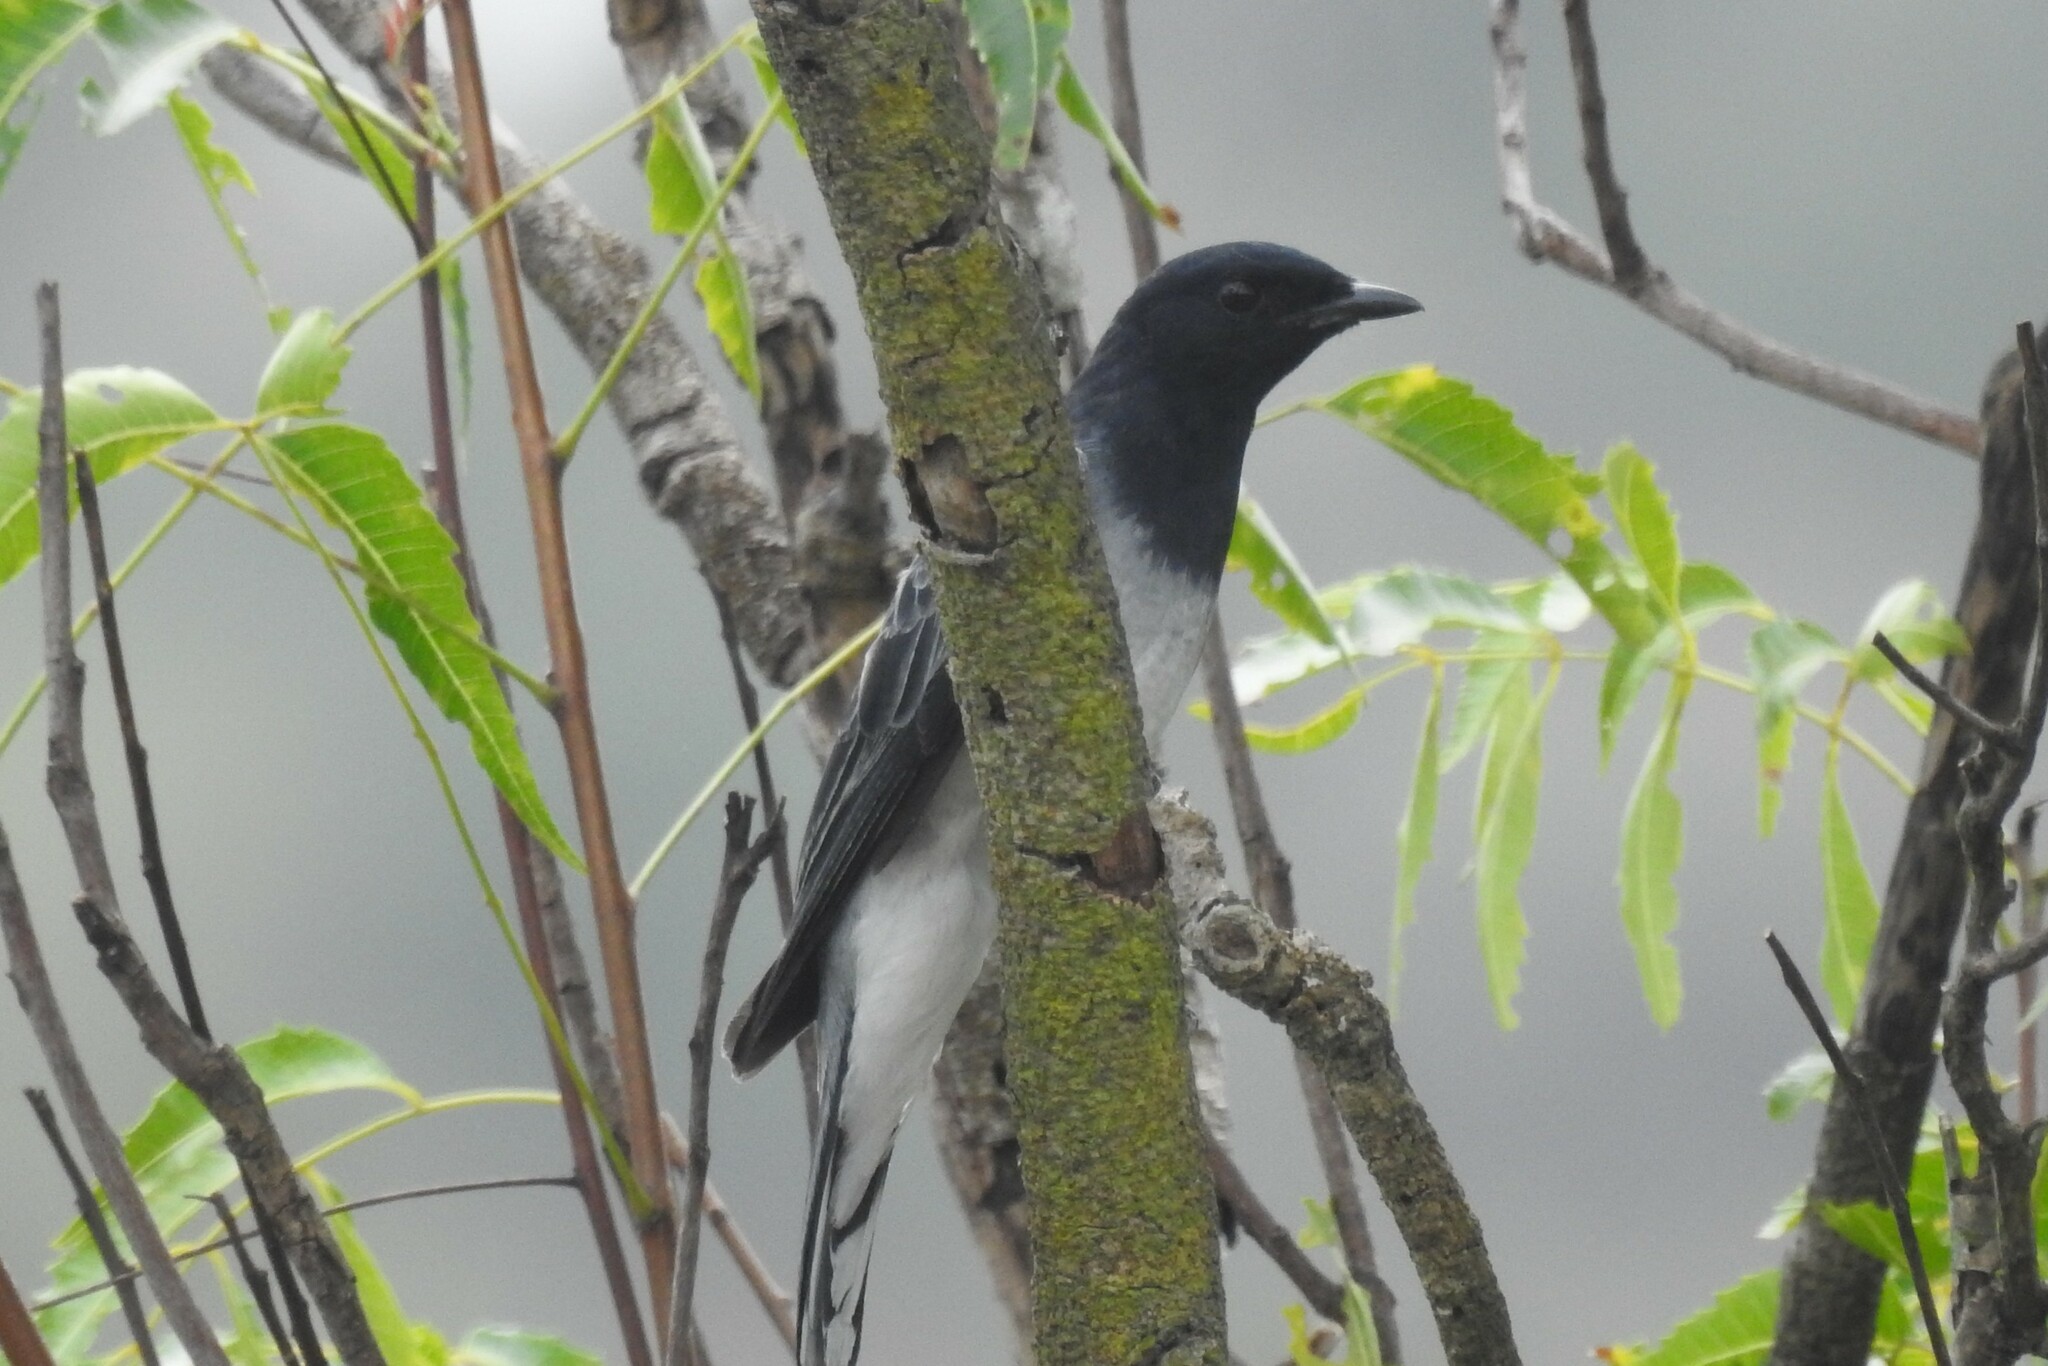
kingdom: Animalia
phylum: Chordata
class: Aves
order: Passeriformes
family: Campephagidae
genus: Coracina
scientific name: Coracina melanoptera
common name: Black-headed cuckooshrike
